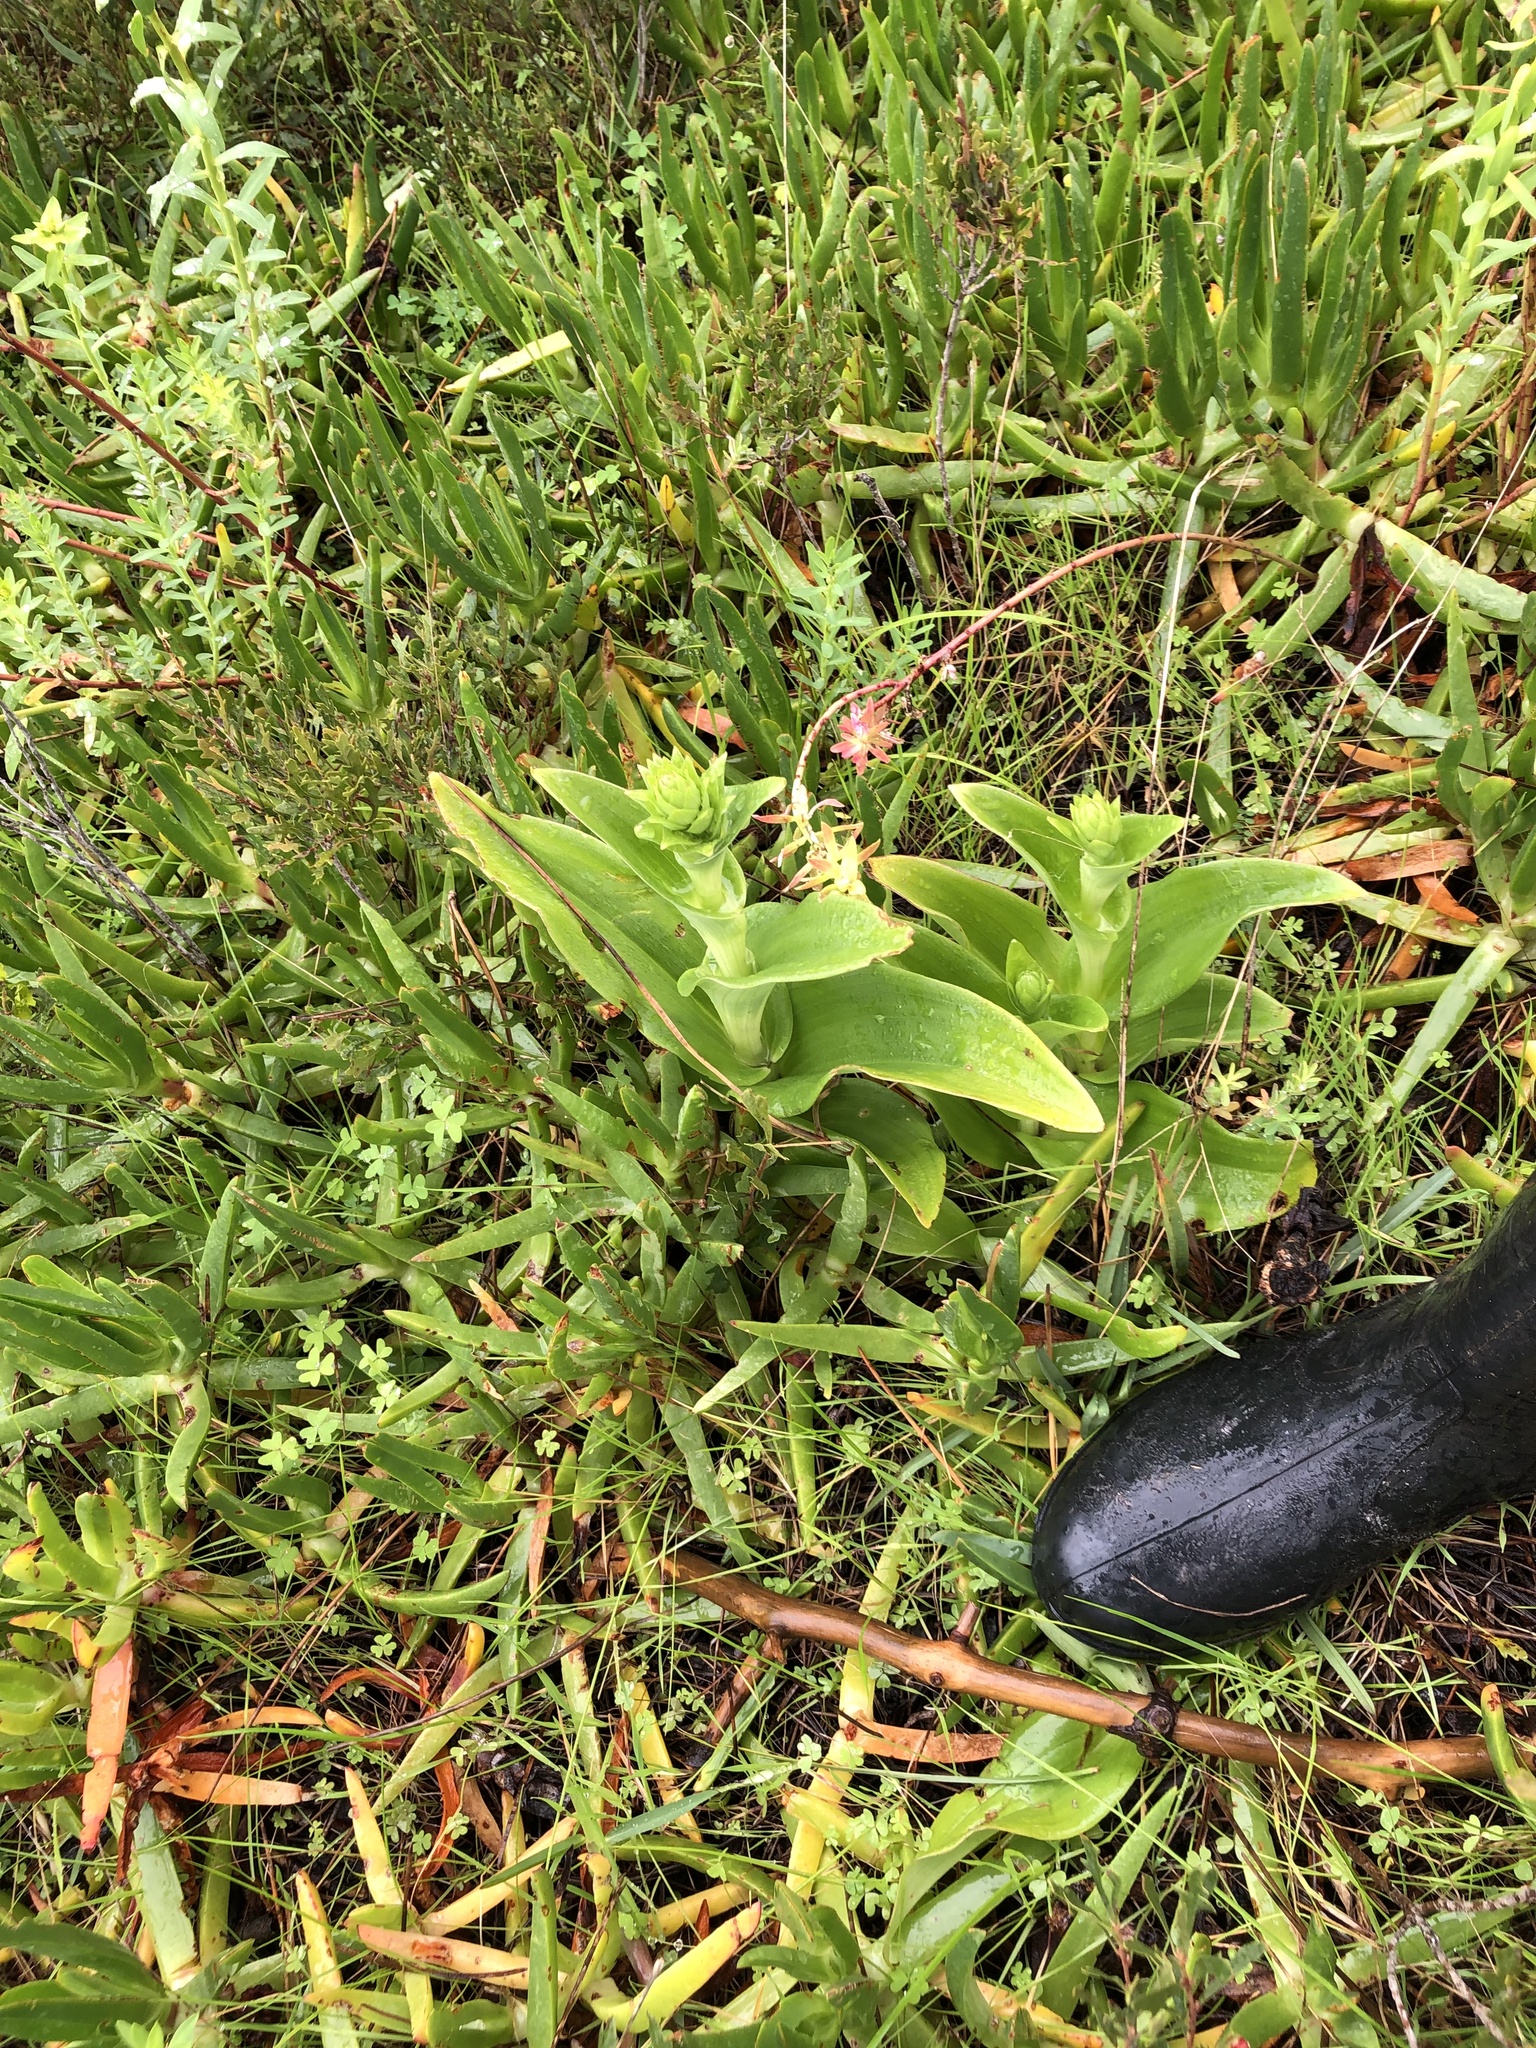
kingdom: Plantae
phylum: Tracheophyta
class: Liliopsida
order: Asparagales
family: Orchidaceae
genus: Satyrium
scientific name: Satyrium odorum
